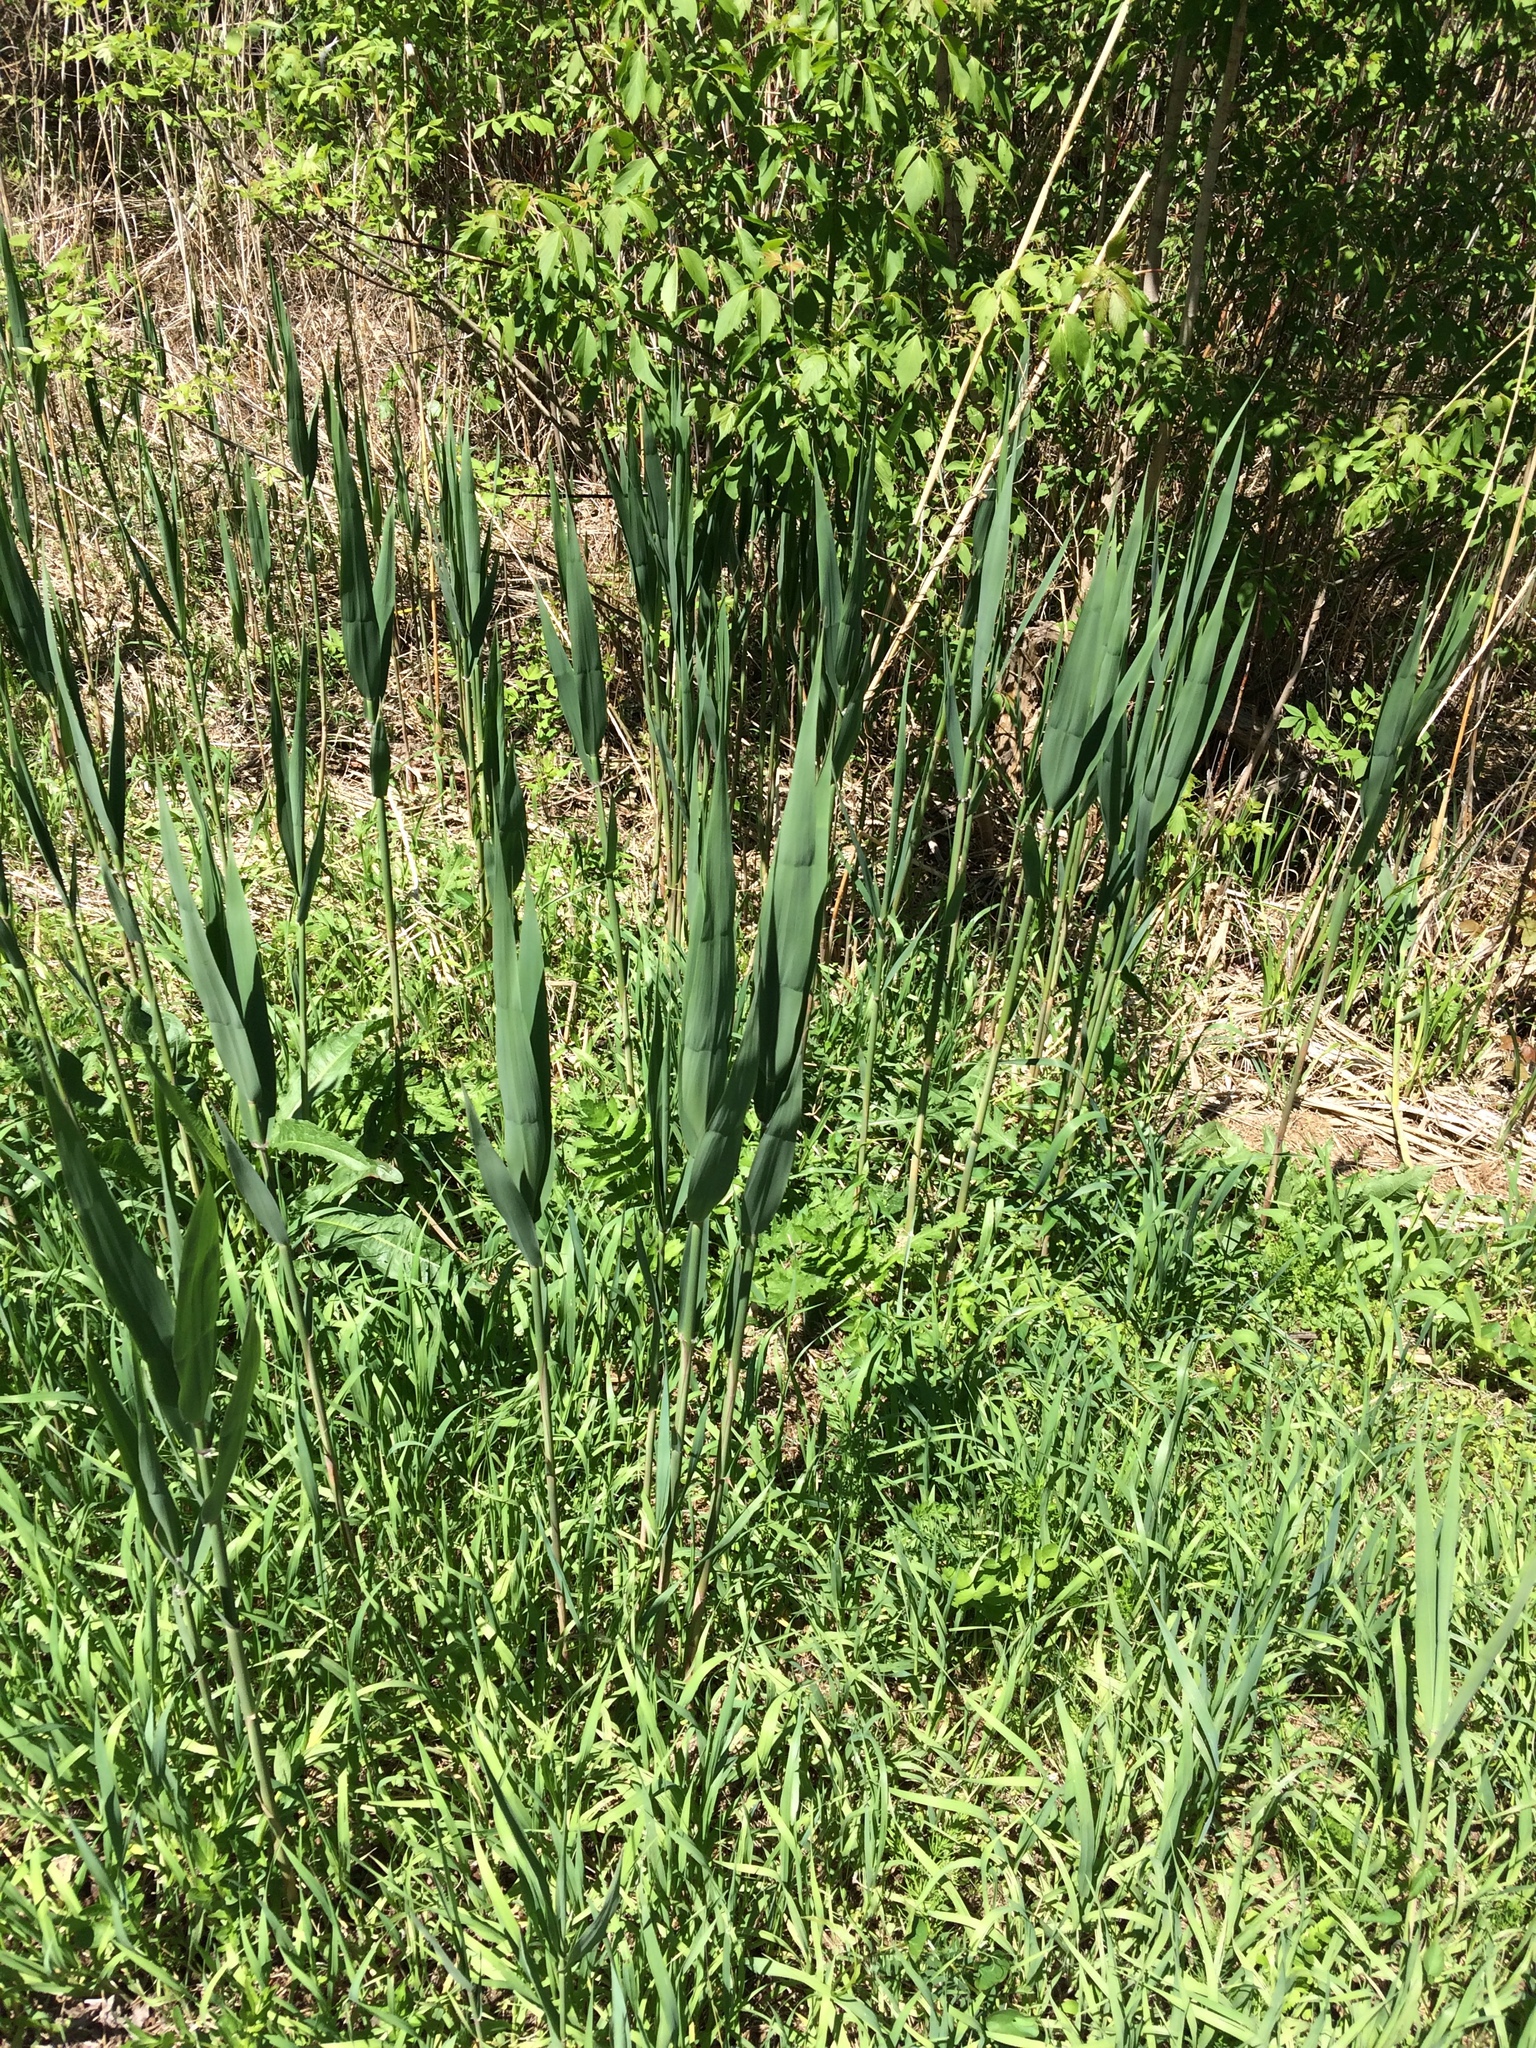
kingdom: Plantae
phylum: Tracheophyta
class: Liliopsida
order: Poales
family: Poaceae
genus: Phragmites
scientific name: Phragmites australis
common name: Common reed
